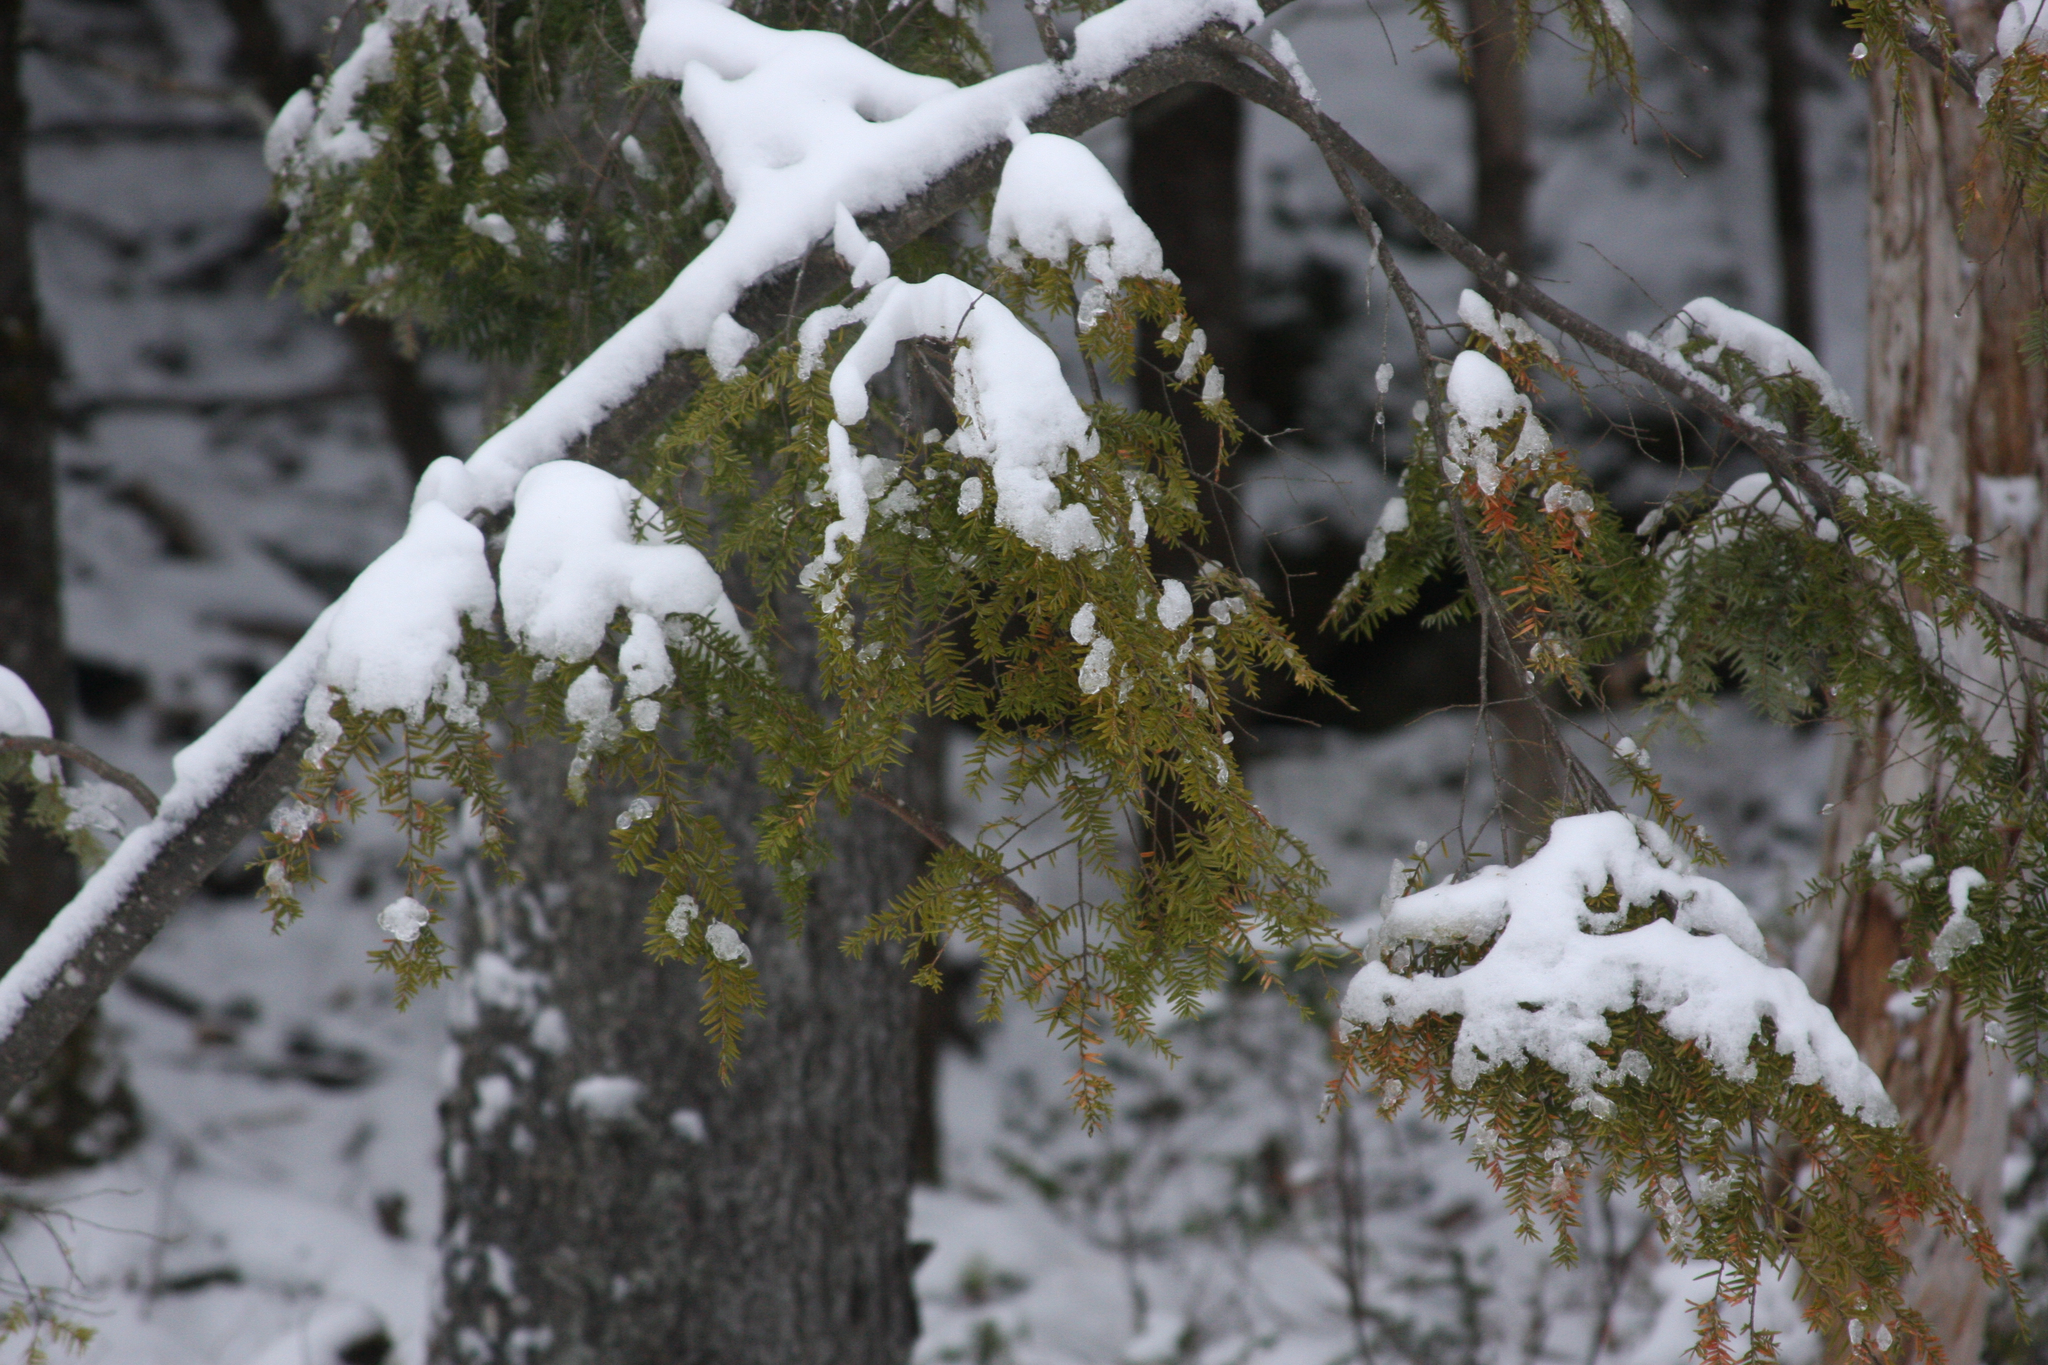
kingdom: Plantae
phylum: Tracheophyta
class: Pinopsida
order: Pinales
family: Pinaceae
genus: Tsuga
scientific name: Tsuga canadensis
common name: Eastern hemlock
